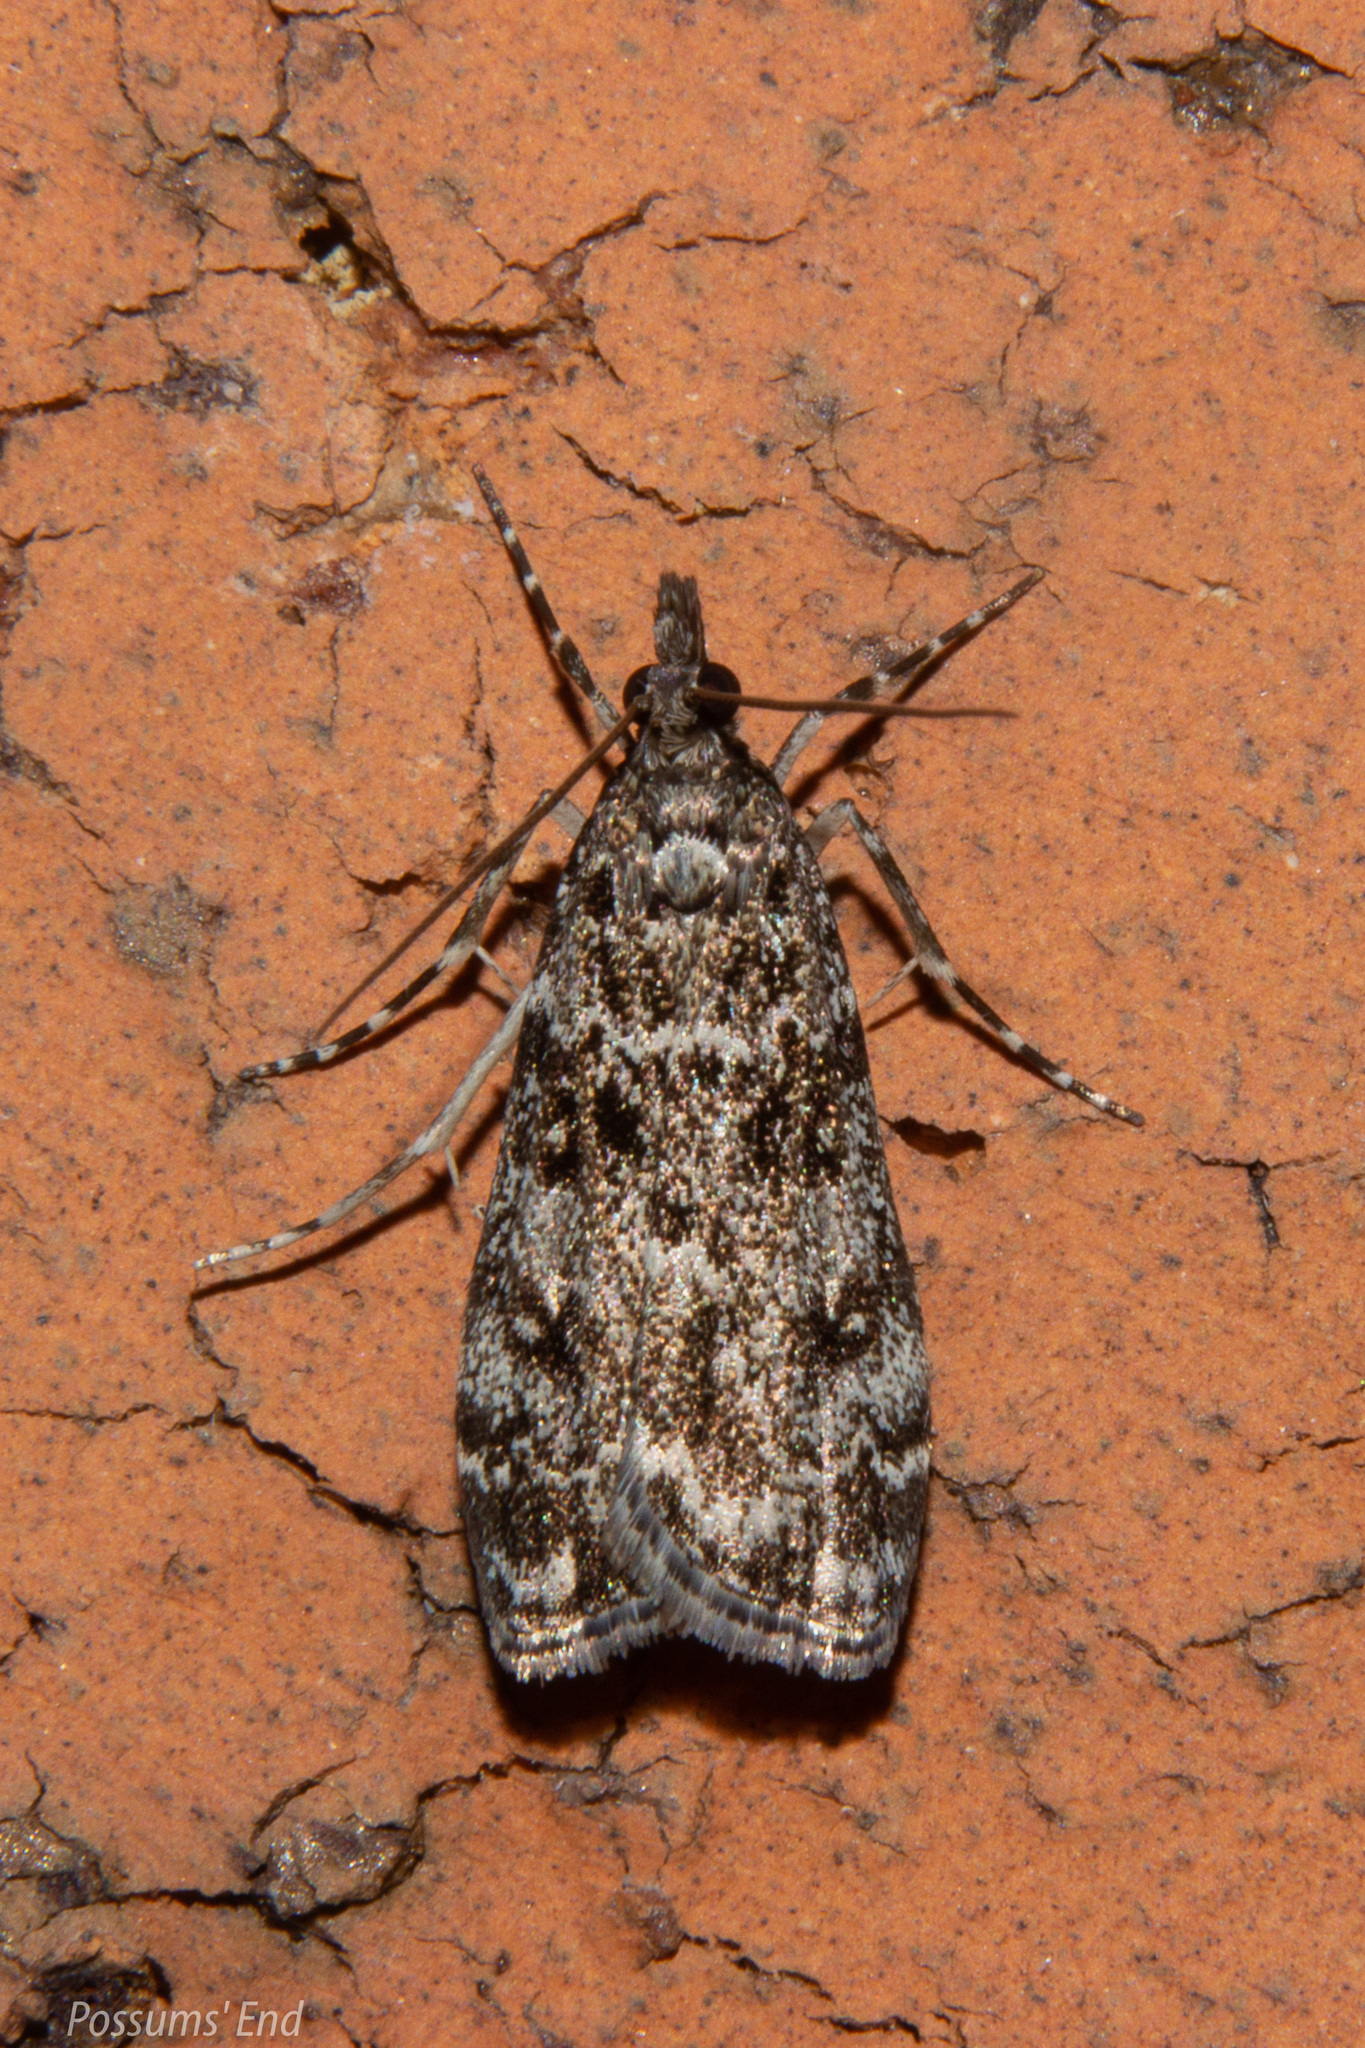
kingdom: Animalia
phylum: Arthropoda
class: Insecta
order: Lepidoptera
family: Crambidae
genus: Eudonia
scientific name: Eudonia philerga
